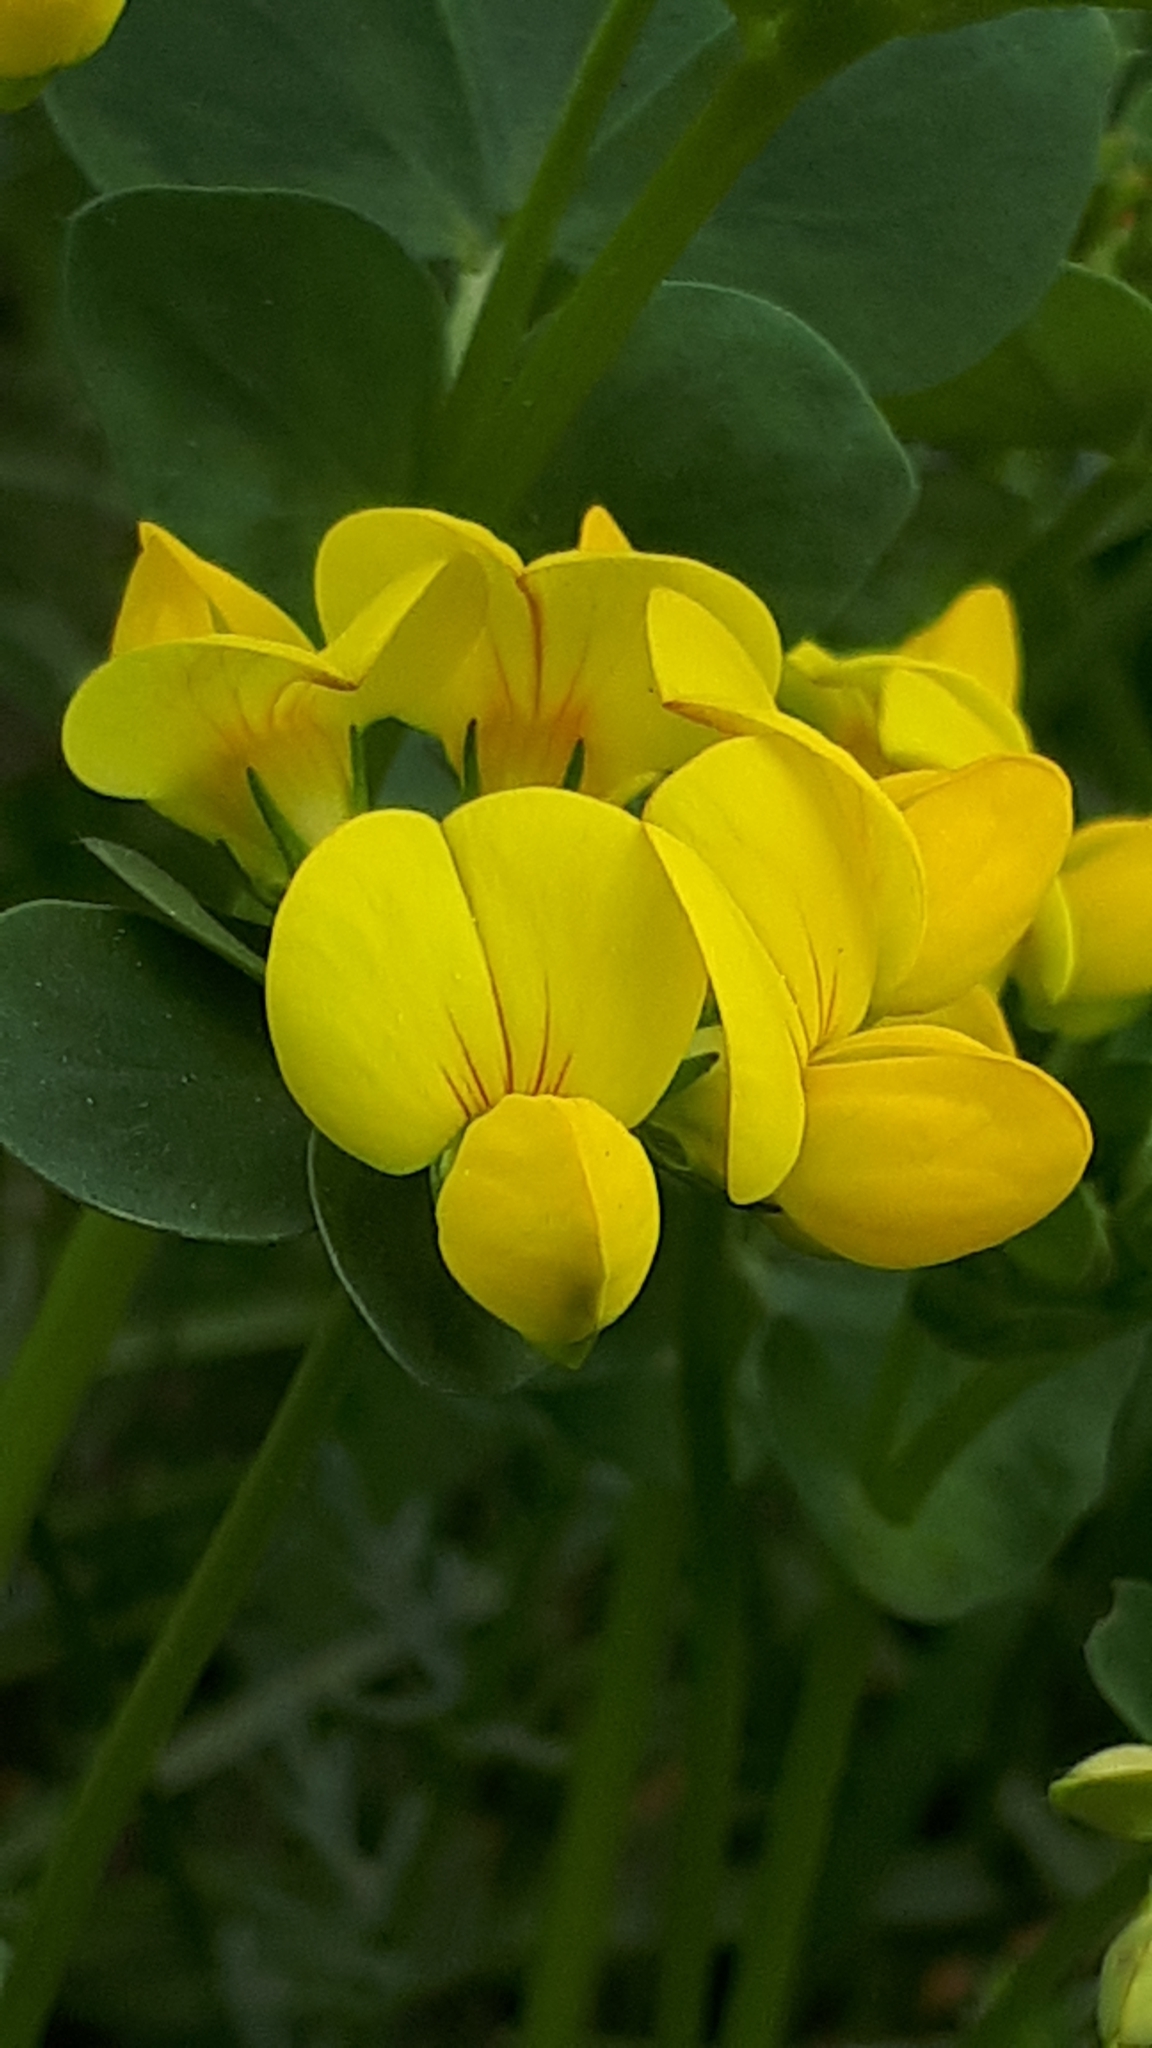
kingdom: Plantae
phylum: Tracheophyta
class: Magnoliopsida
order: Fabales
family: Fabaceae
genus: Lotus
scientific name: Lotus corniculatus
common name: Common bird's-foot-trefoil
